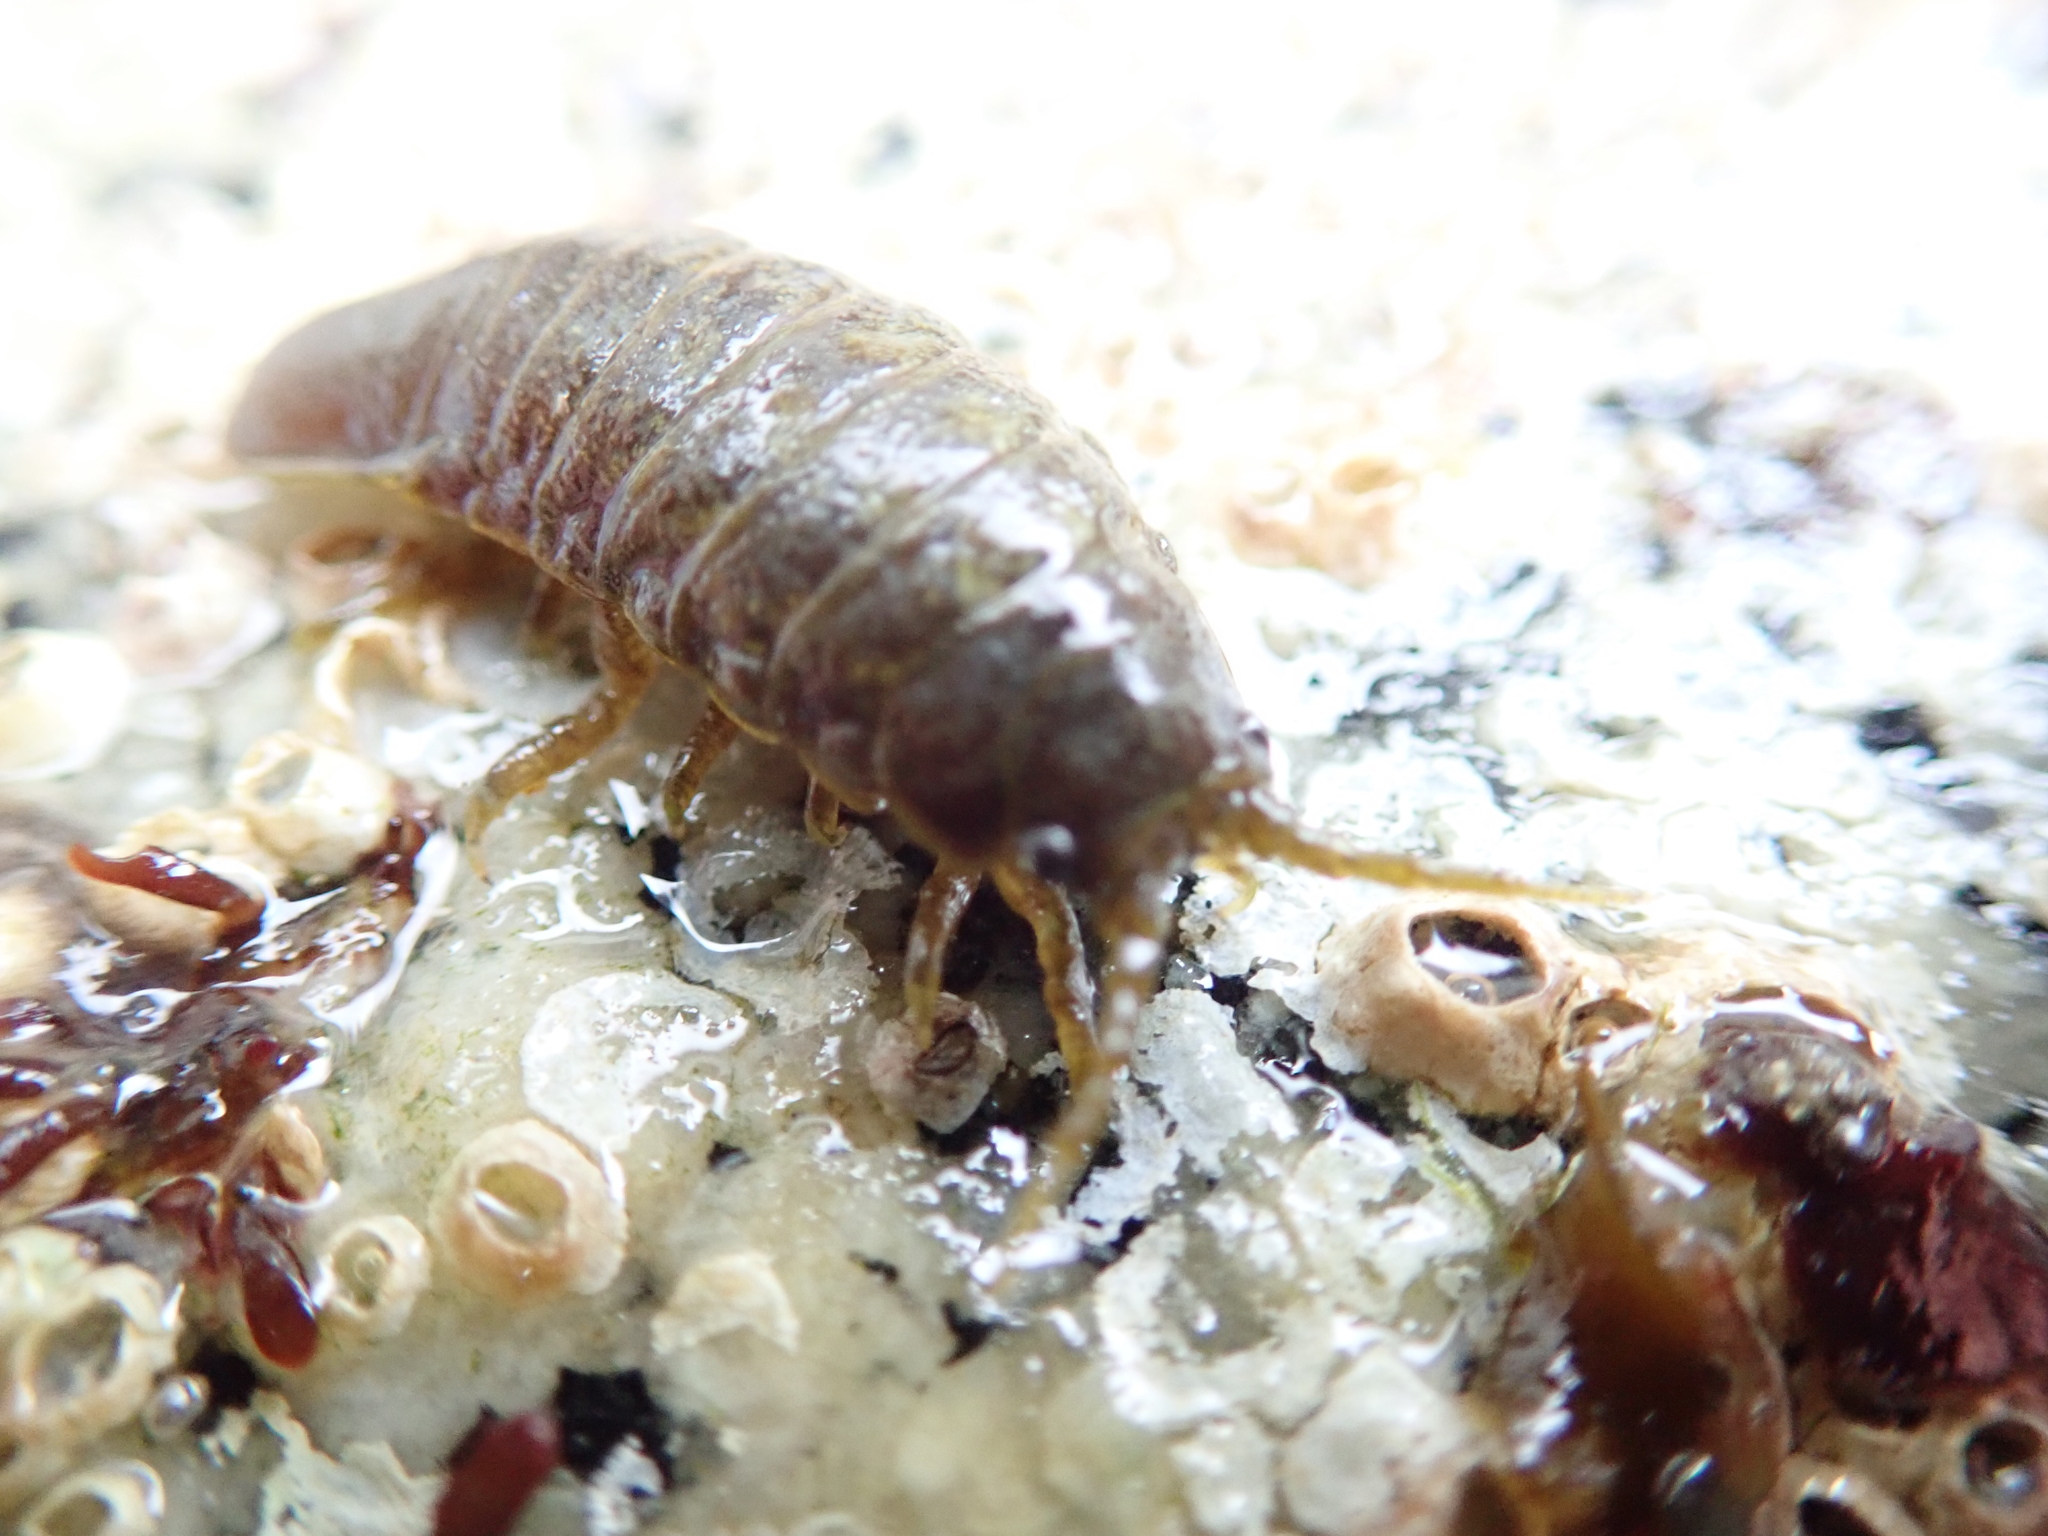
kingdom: Animalia
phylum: Arthropoda
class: Malacostraca
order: Isopoda
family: Idoteidae
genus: Pentidotea
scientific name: Pentidotea wosnesenskii
